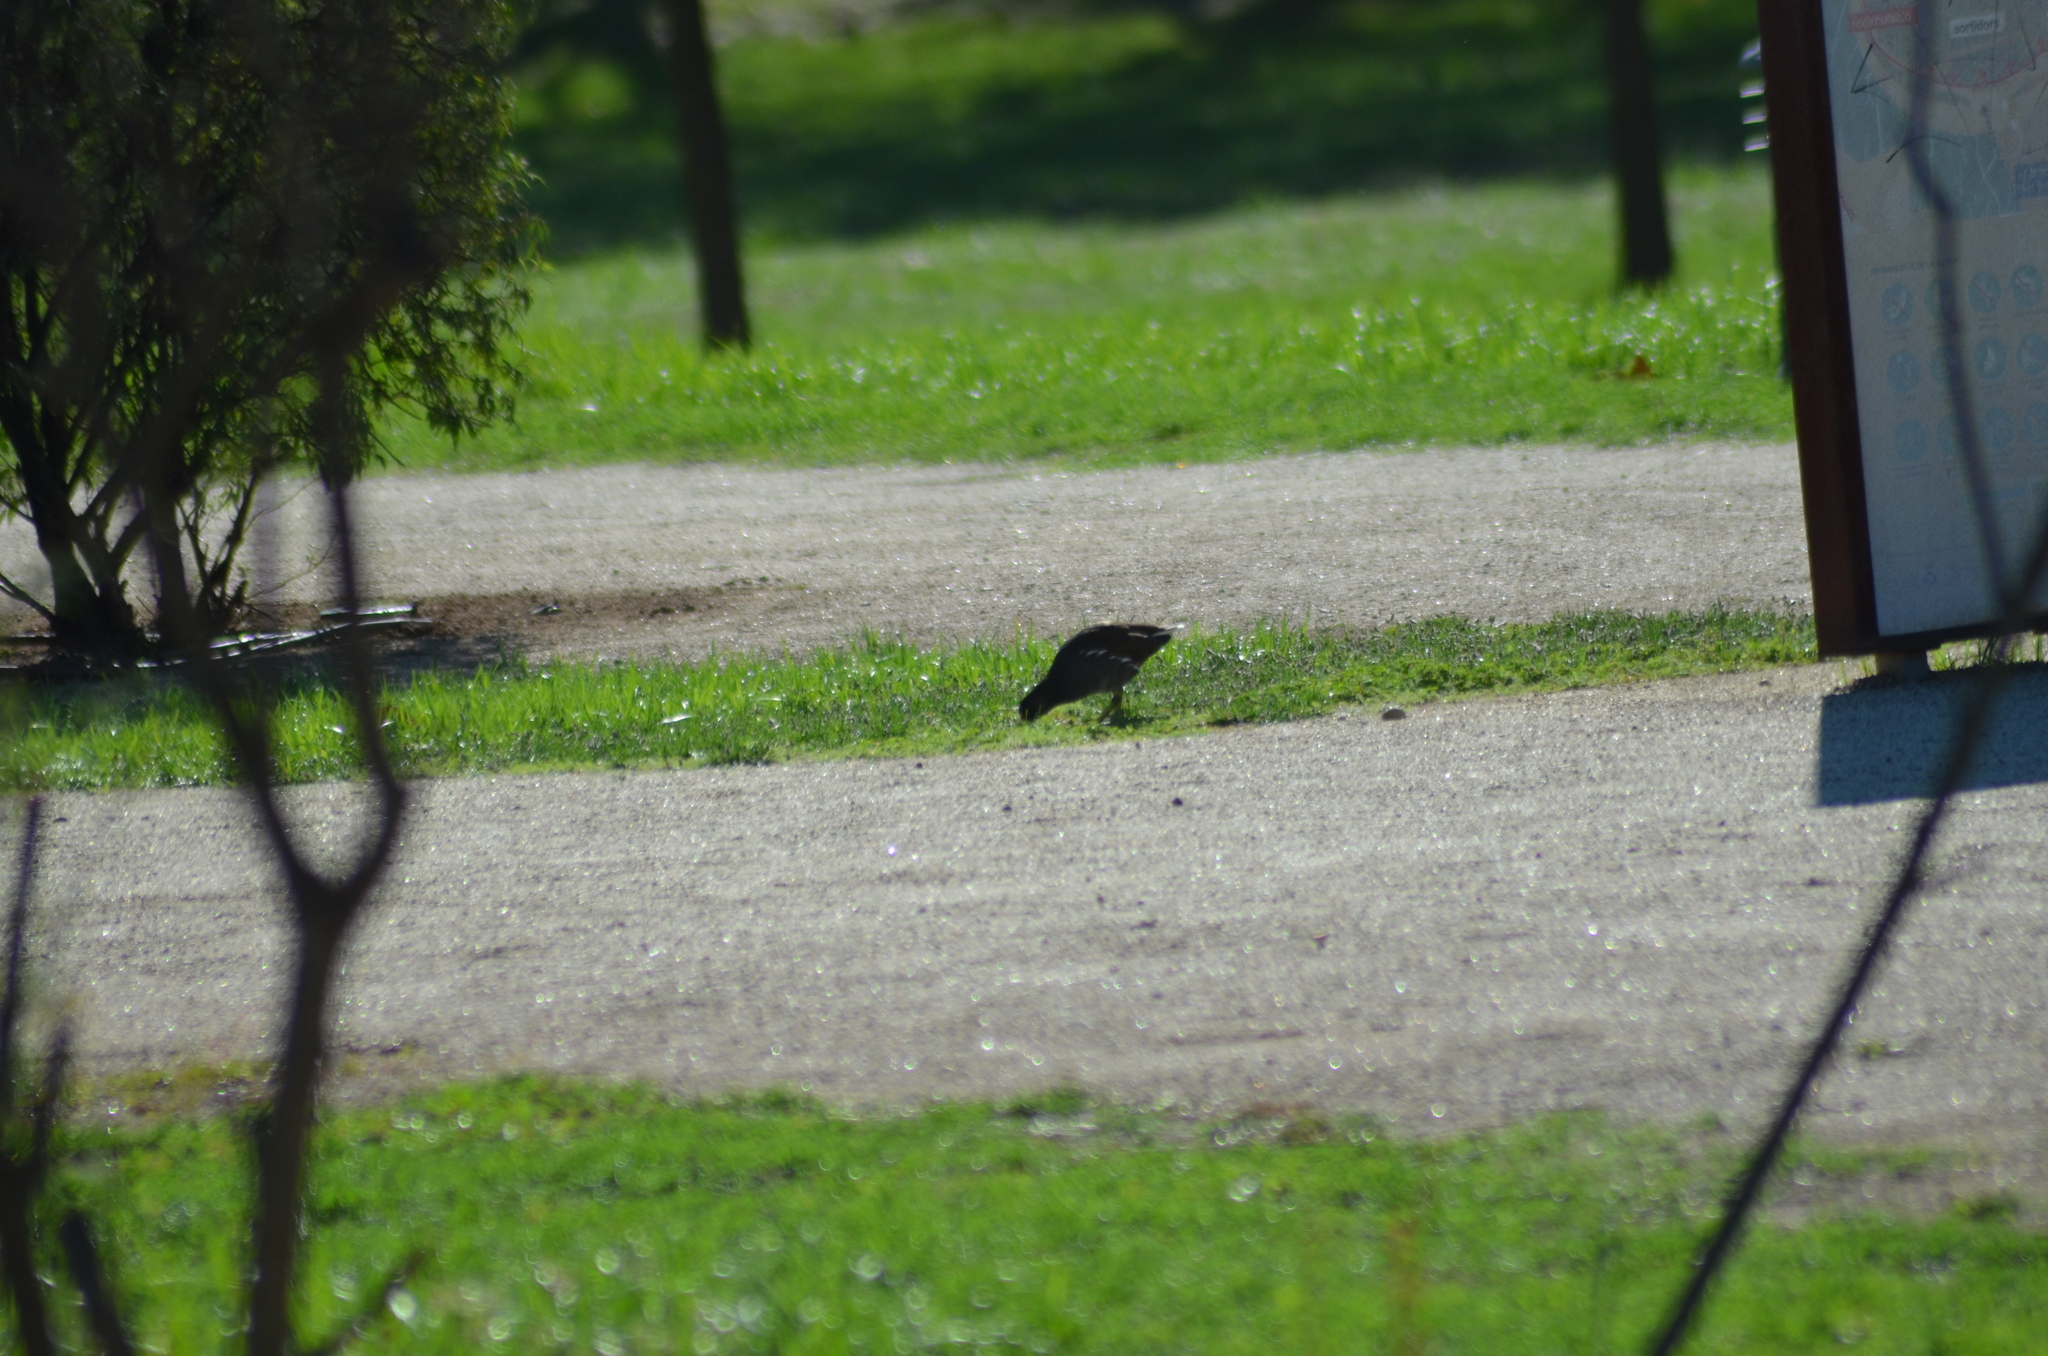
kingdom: Animalia
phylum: Chordata
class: Aves
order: Gruiformes
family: Rallidae
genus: Gallinula
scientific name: Gallinula chloropus
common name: Common moorhen
